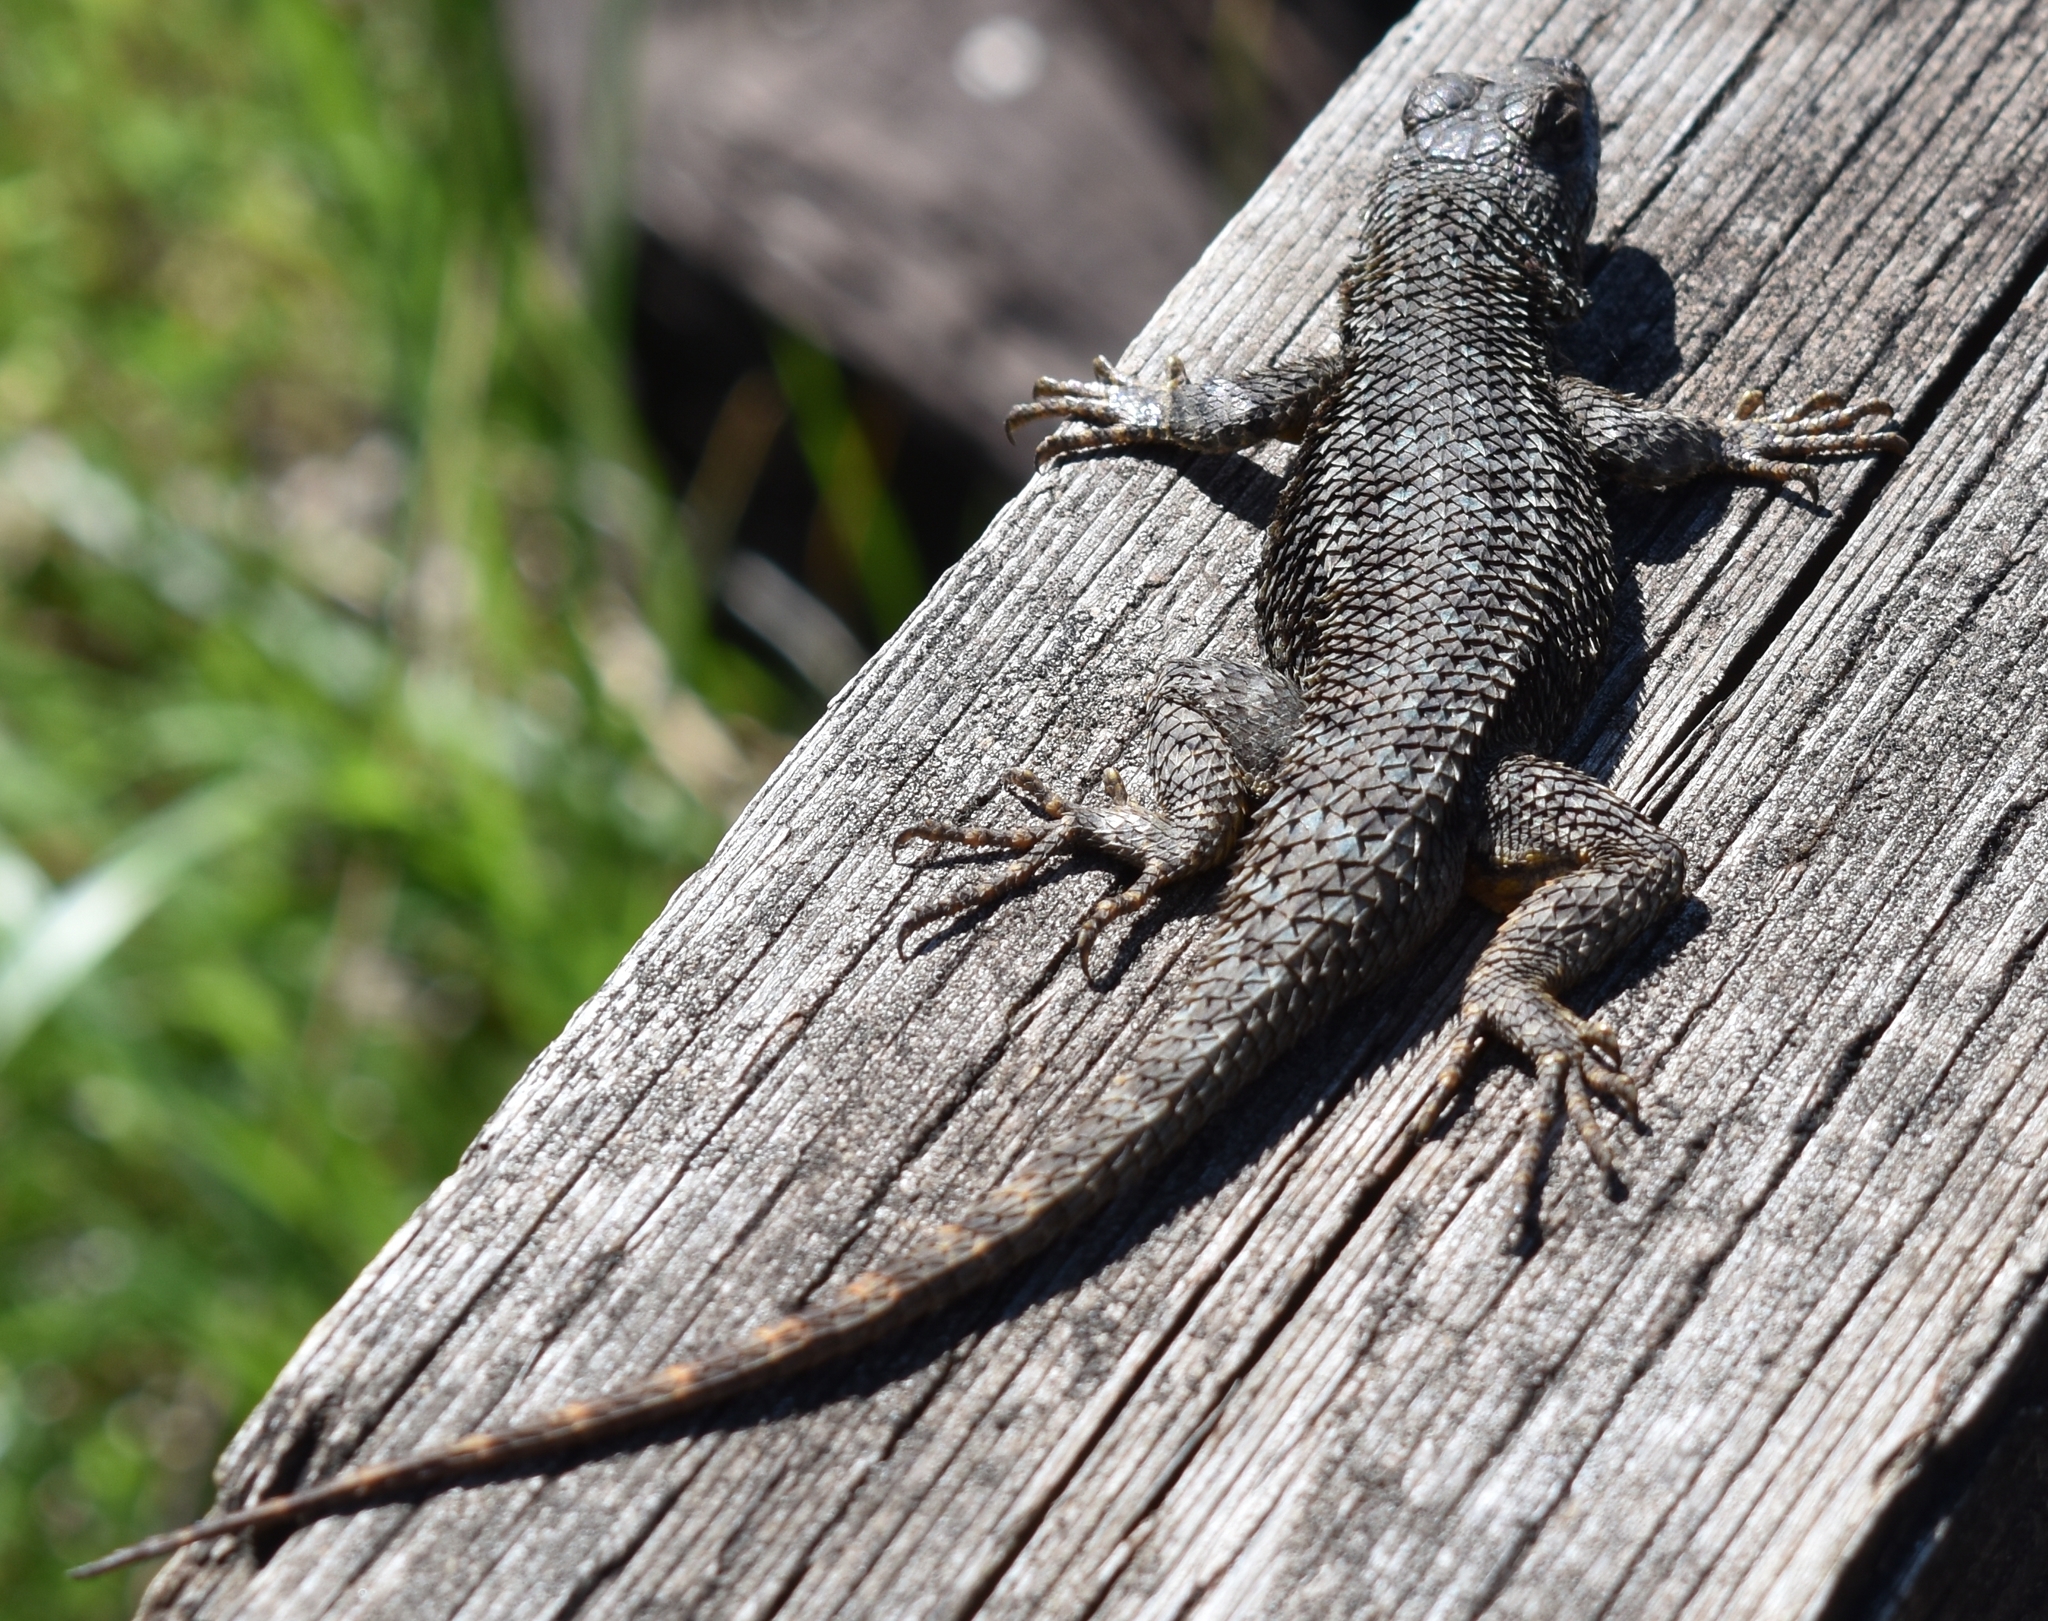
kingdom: Animalia
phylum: Chordata
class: Squamata
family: Phrynosomatidae
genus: Sceloporus
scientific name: Sceloporus occidentalis
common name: Western fence lizard
